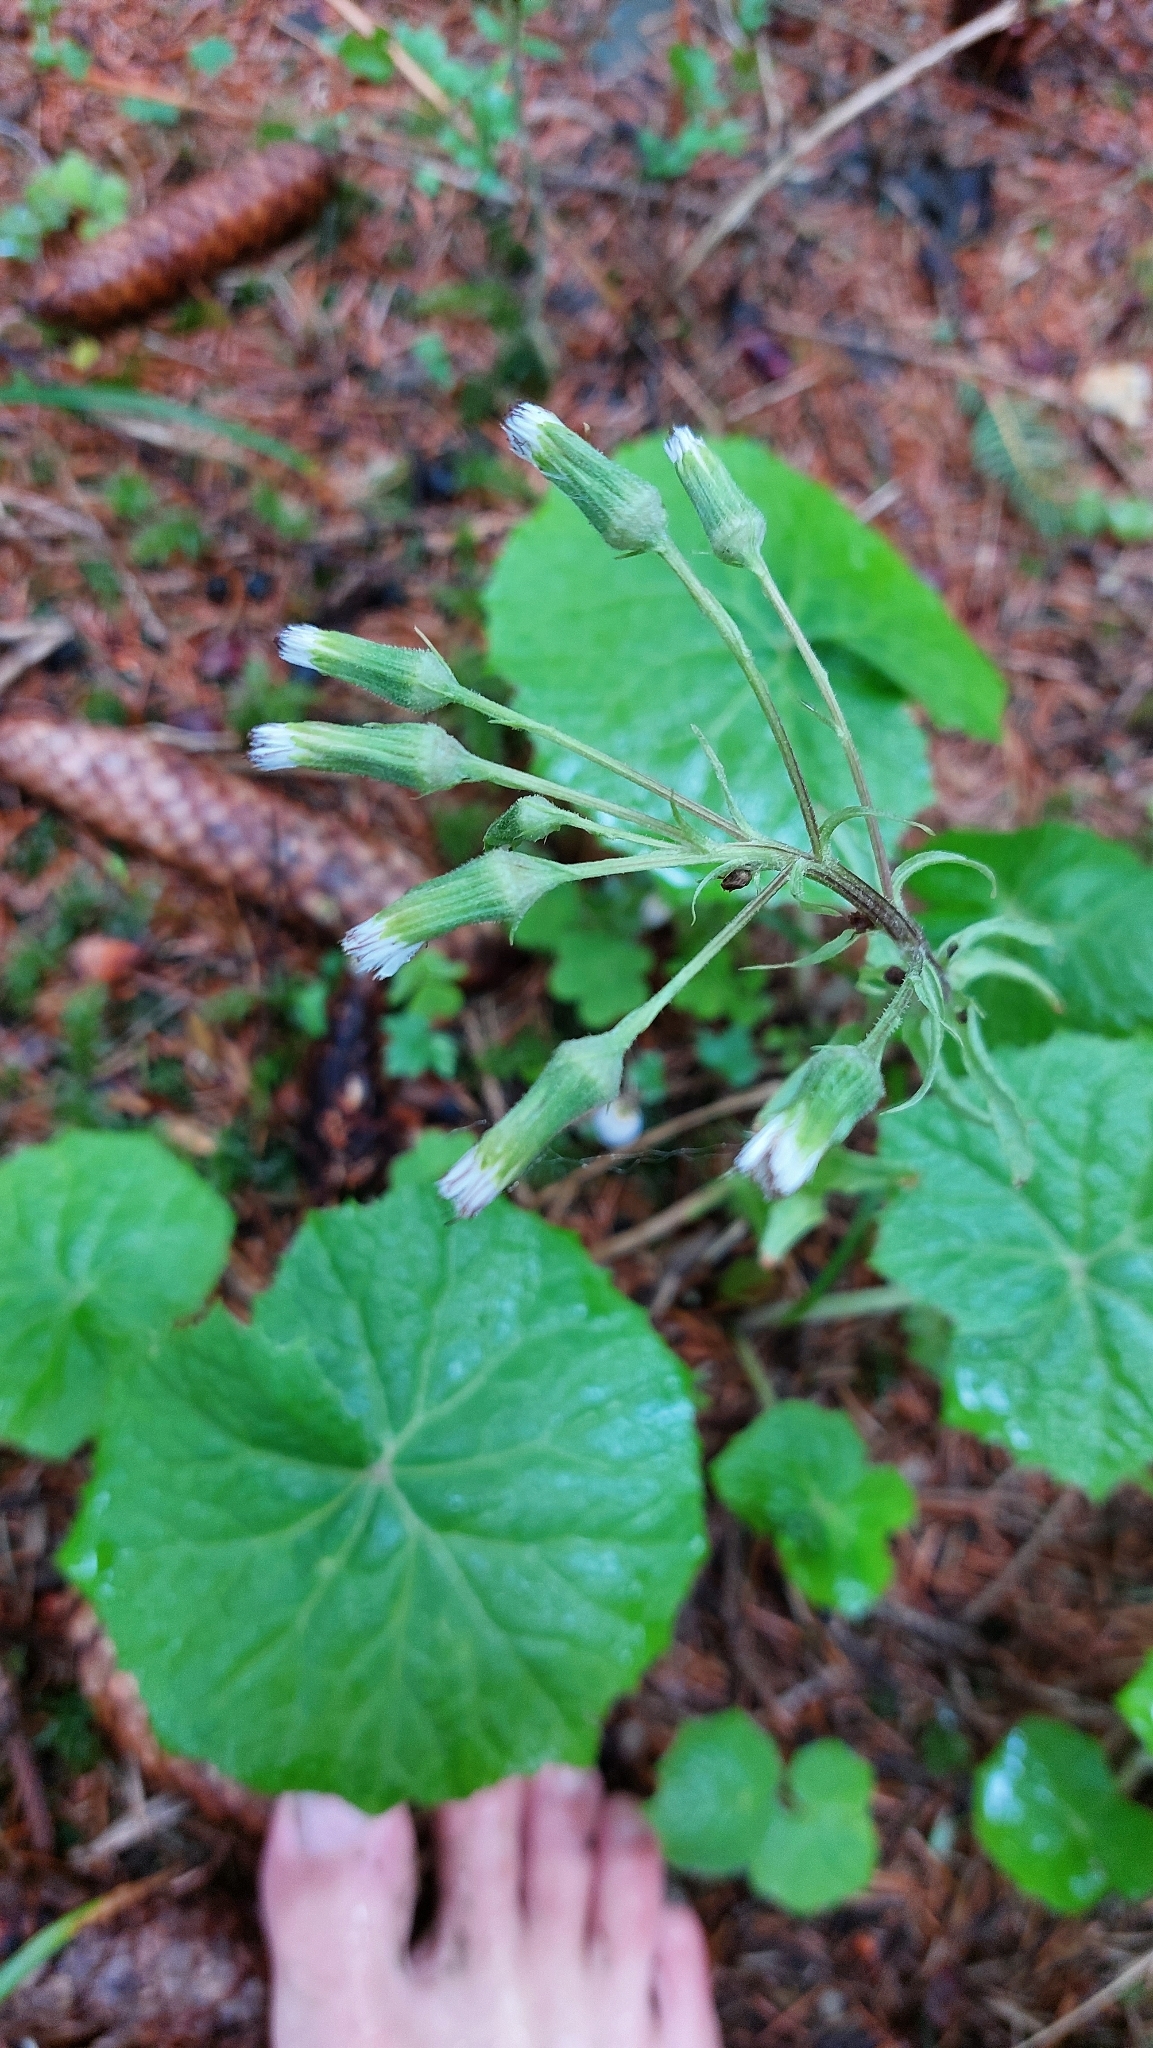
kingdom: Plantae
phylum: Tracheophyta
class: Magnoliopsida
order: Asterales
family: Asteraceae
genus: Petasites
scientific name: Petasites albus
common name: White butterbur
